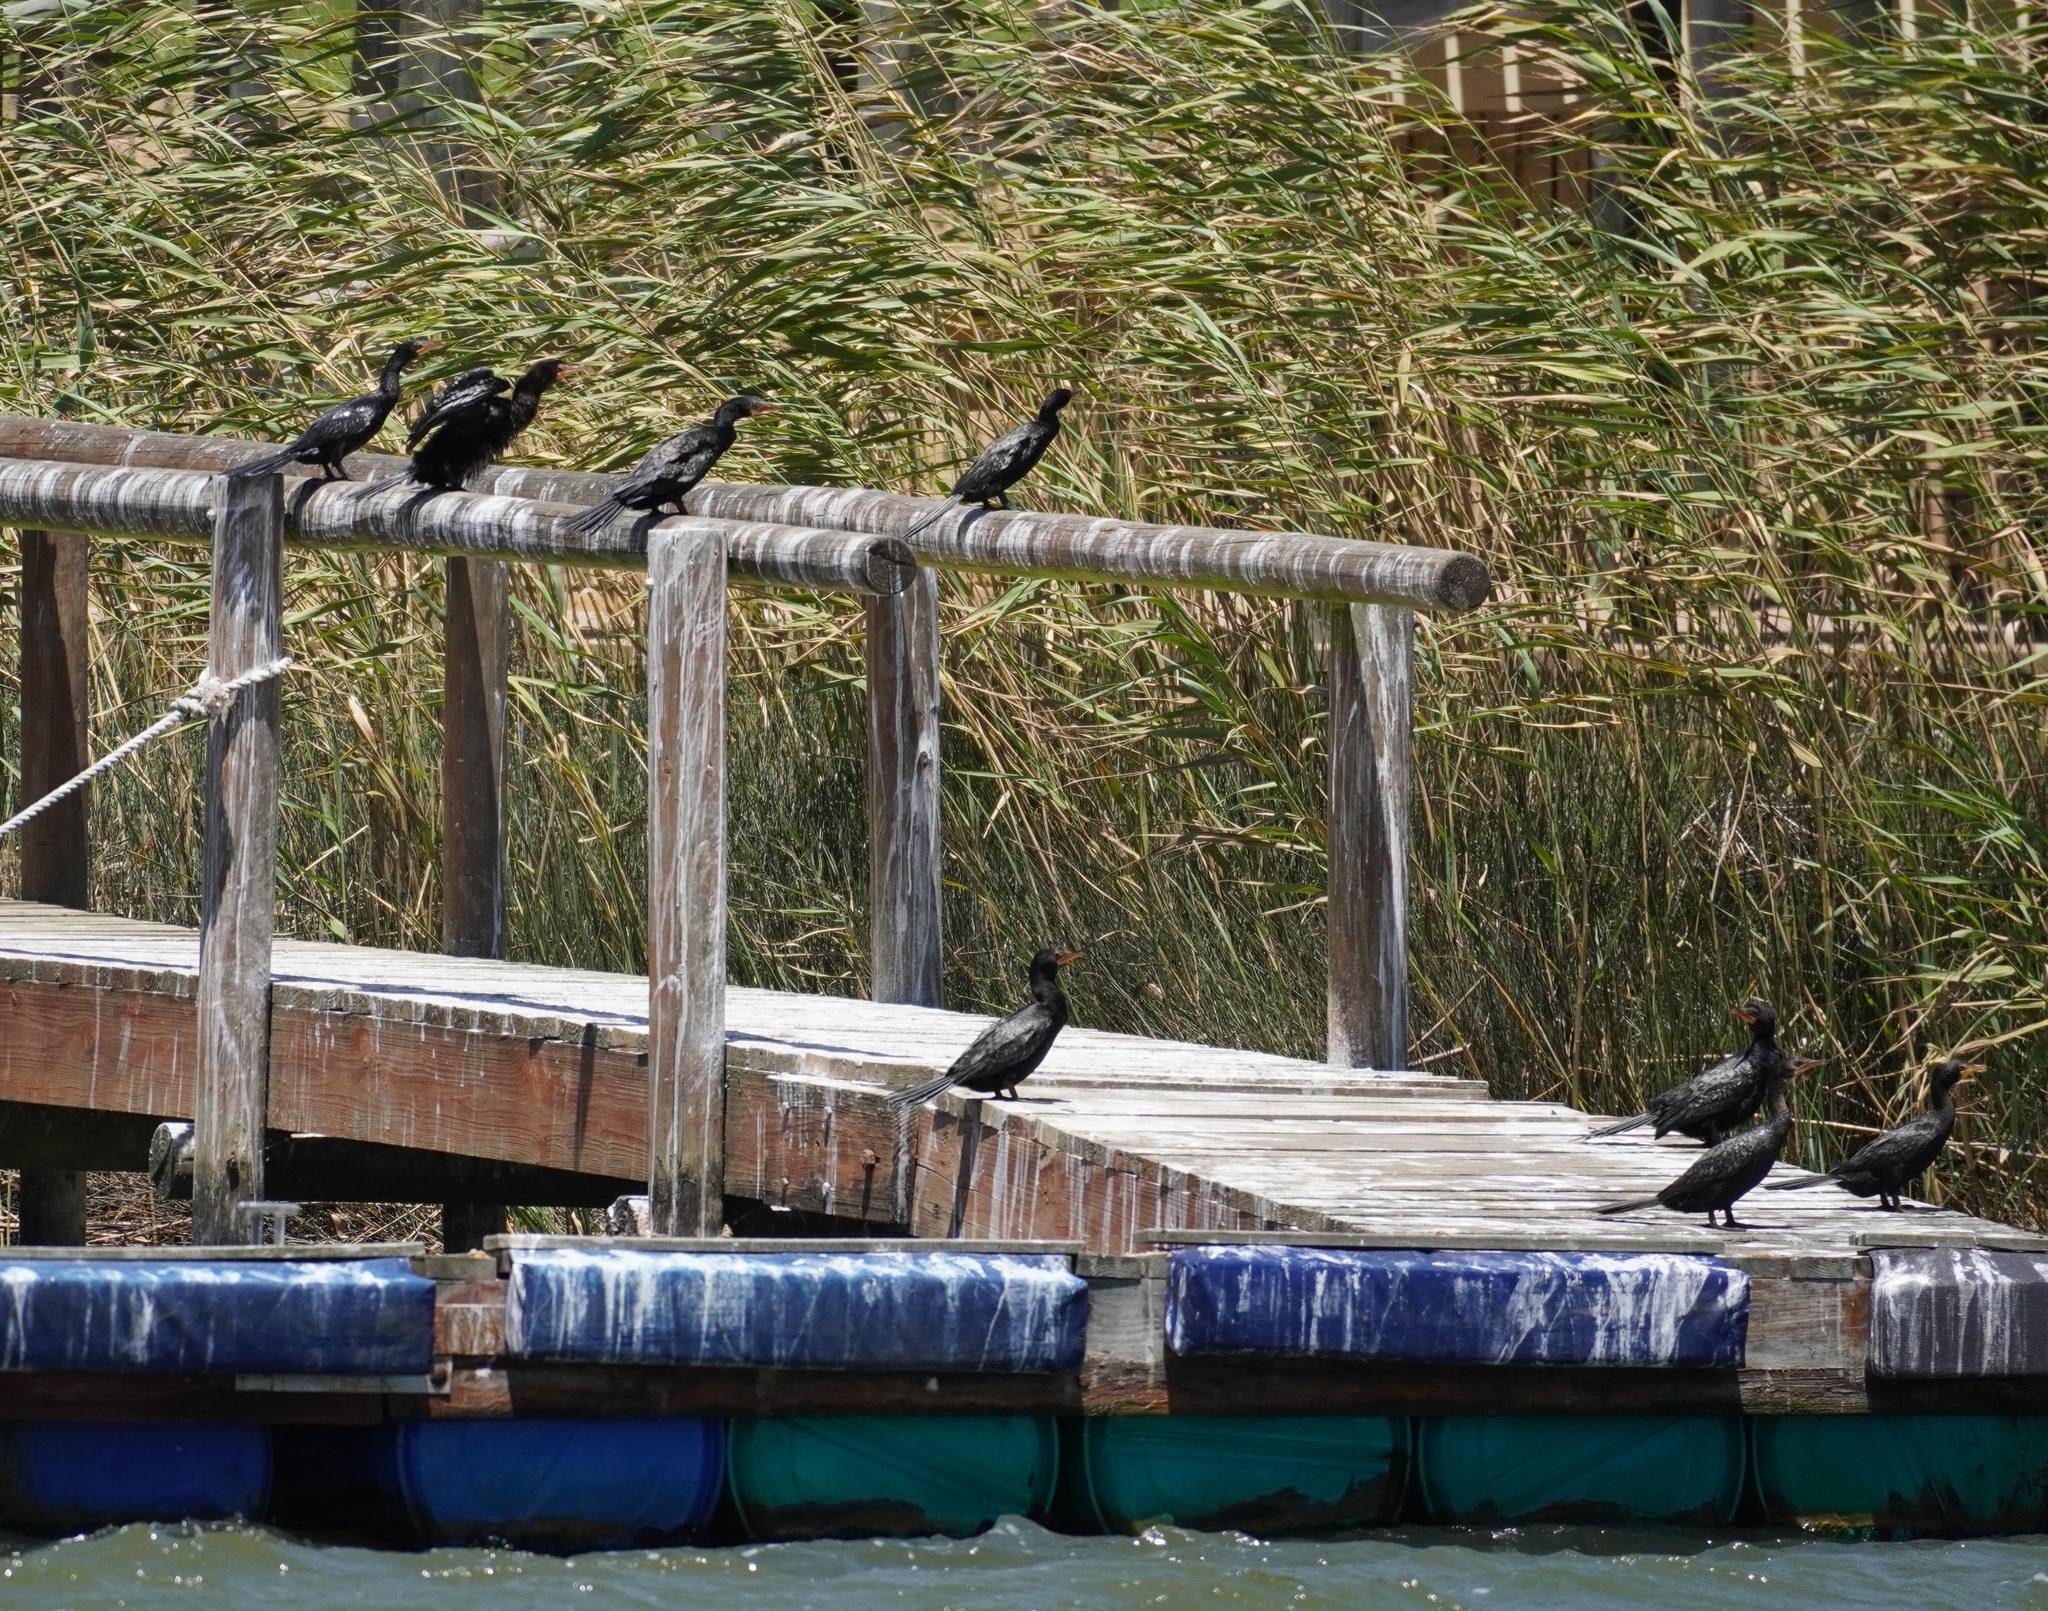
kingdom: Animalia
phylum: Chordata
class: Aves
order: Suliformes
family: Phalacrocoracidae
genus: Microcarbo
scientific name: Microcarbo africanus
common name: Long-tailed cormorant
